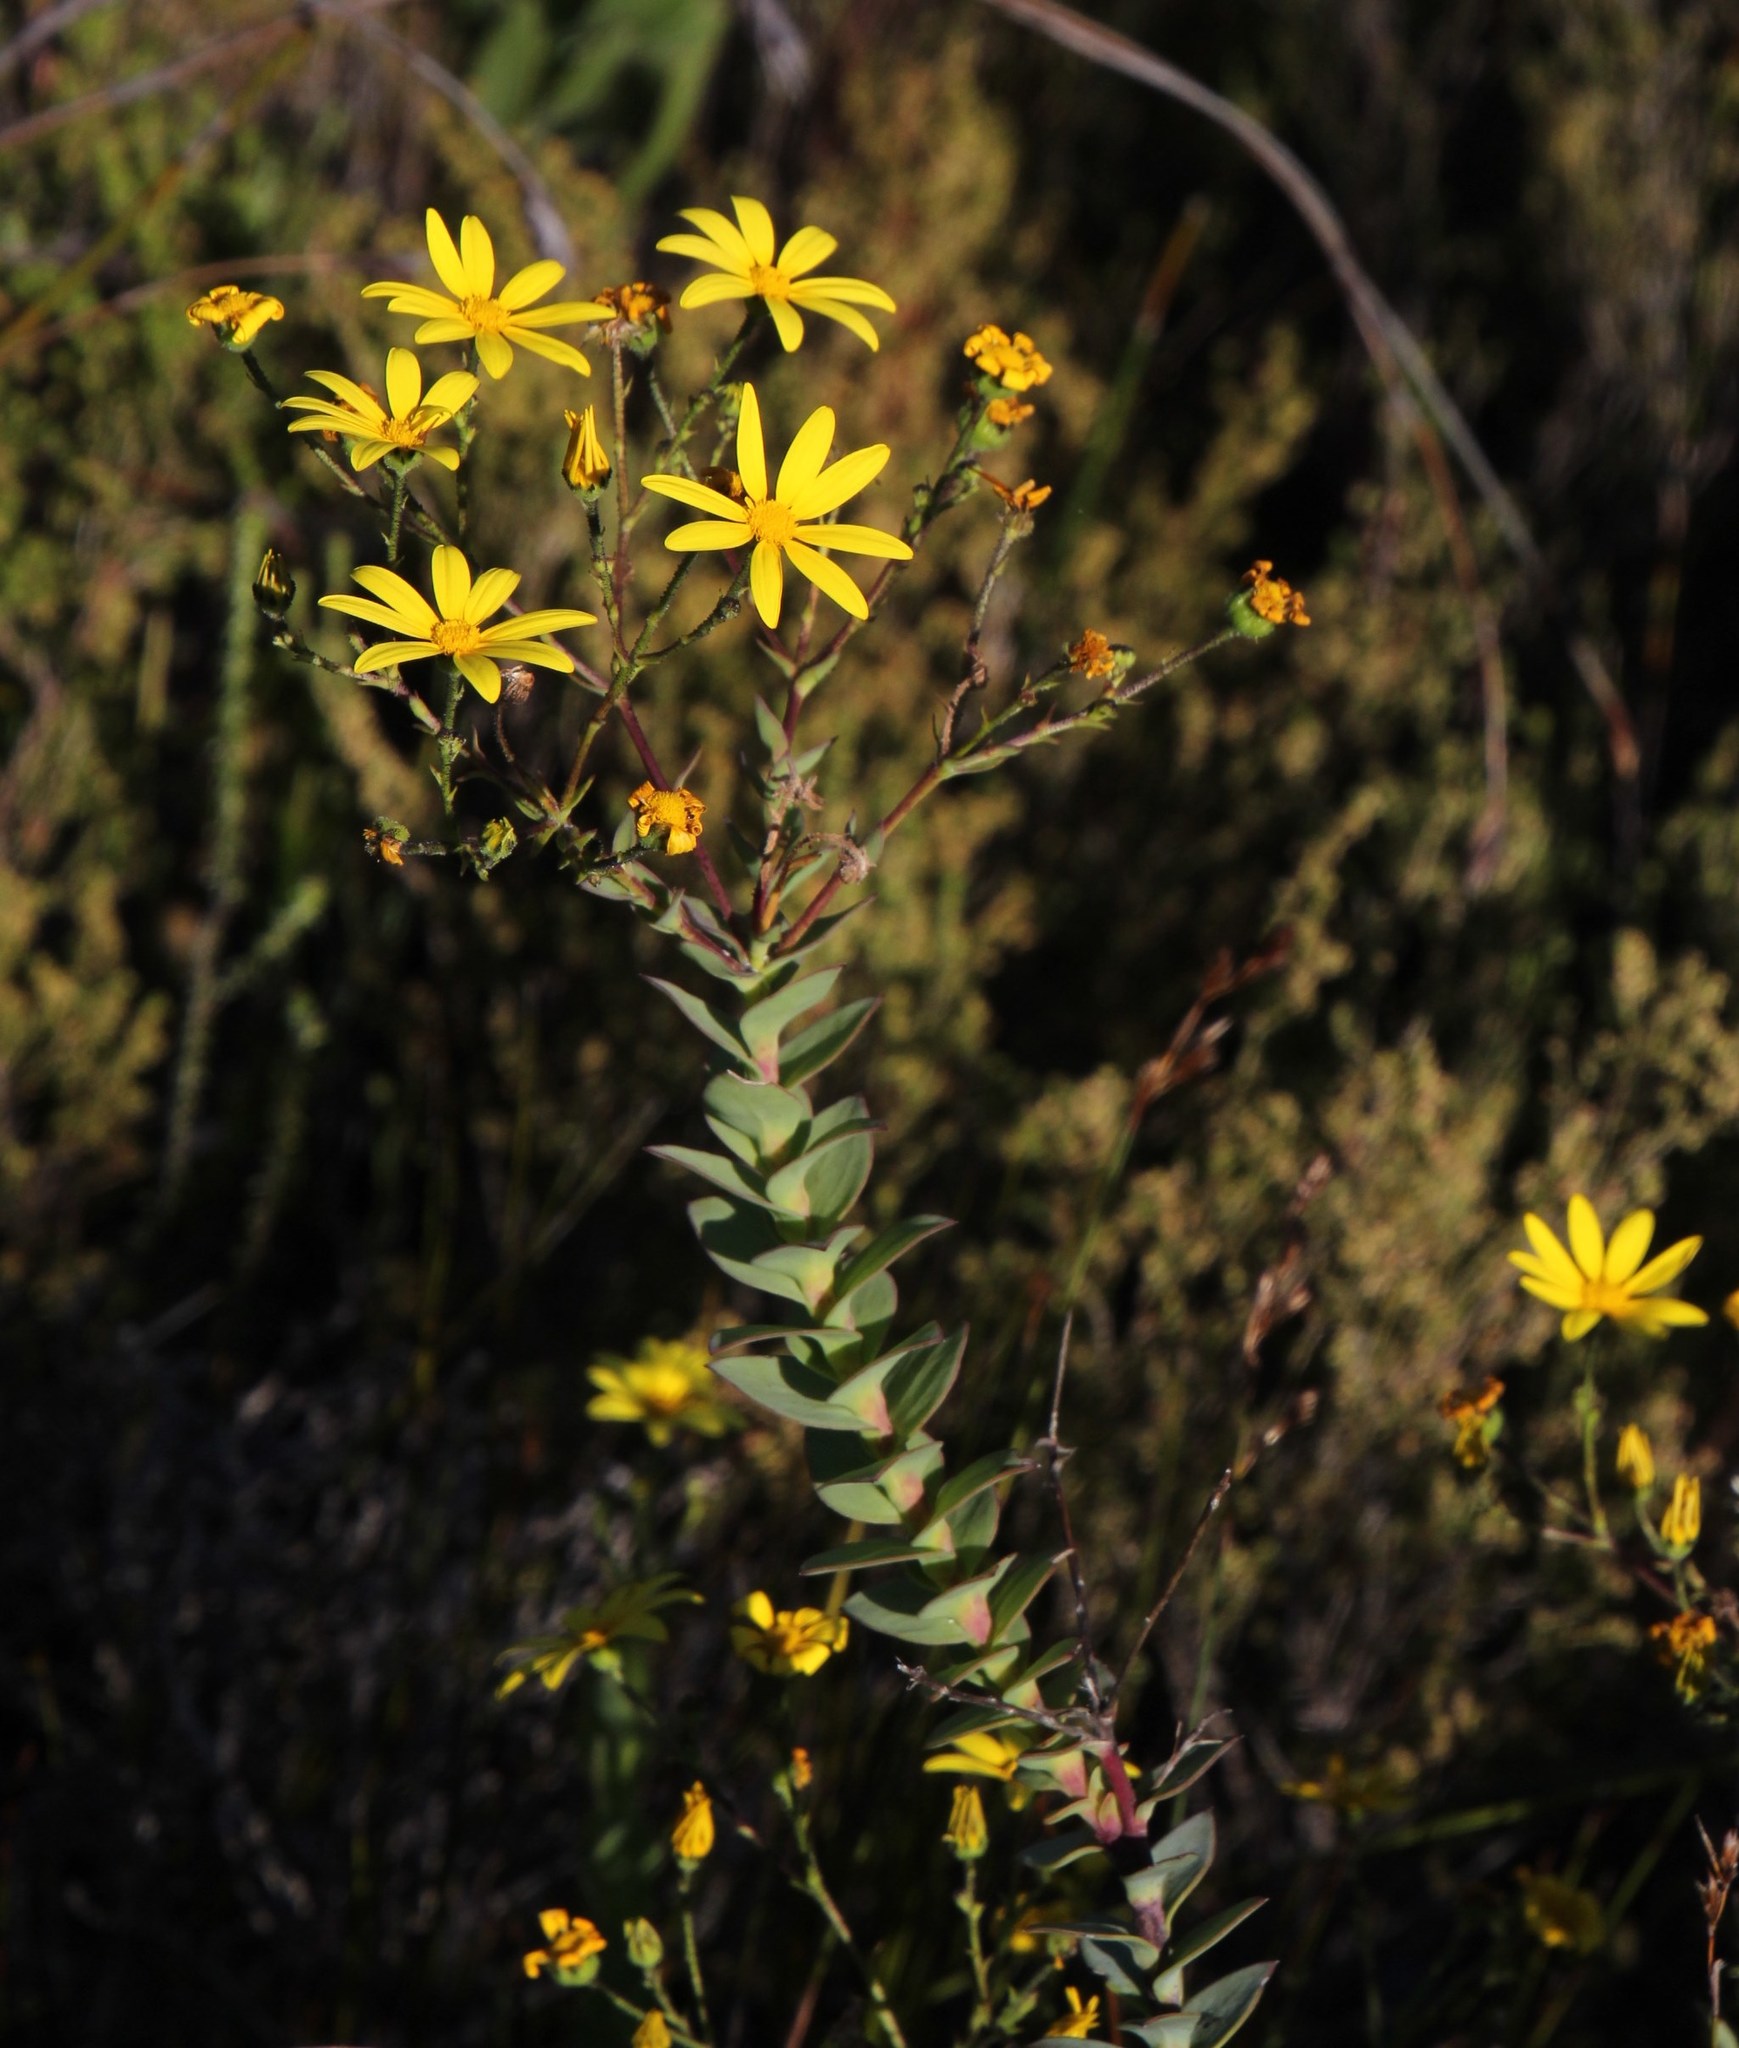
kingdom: Plantae
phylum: Tracheophyta
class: Magnoliopsida
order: Asterales
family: Asteraceae
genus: Osteospermum
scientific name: Osteospermum polygaloides
